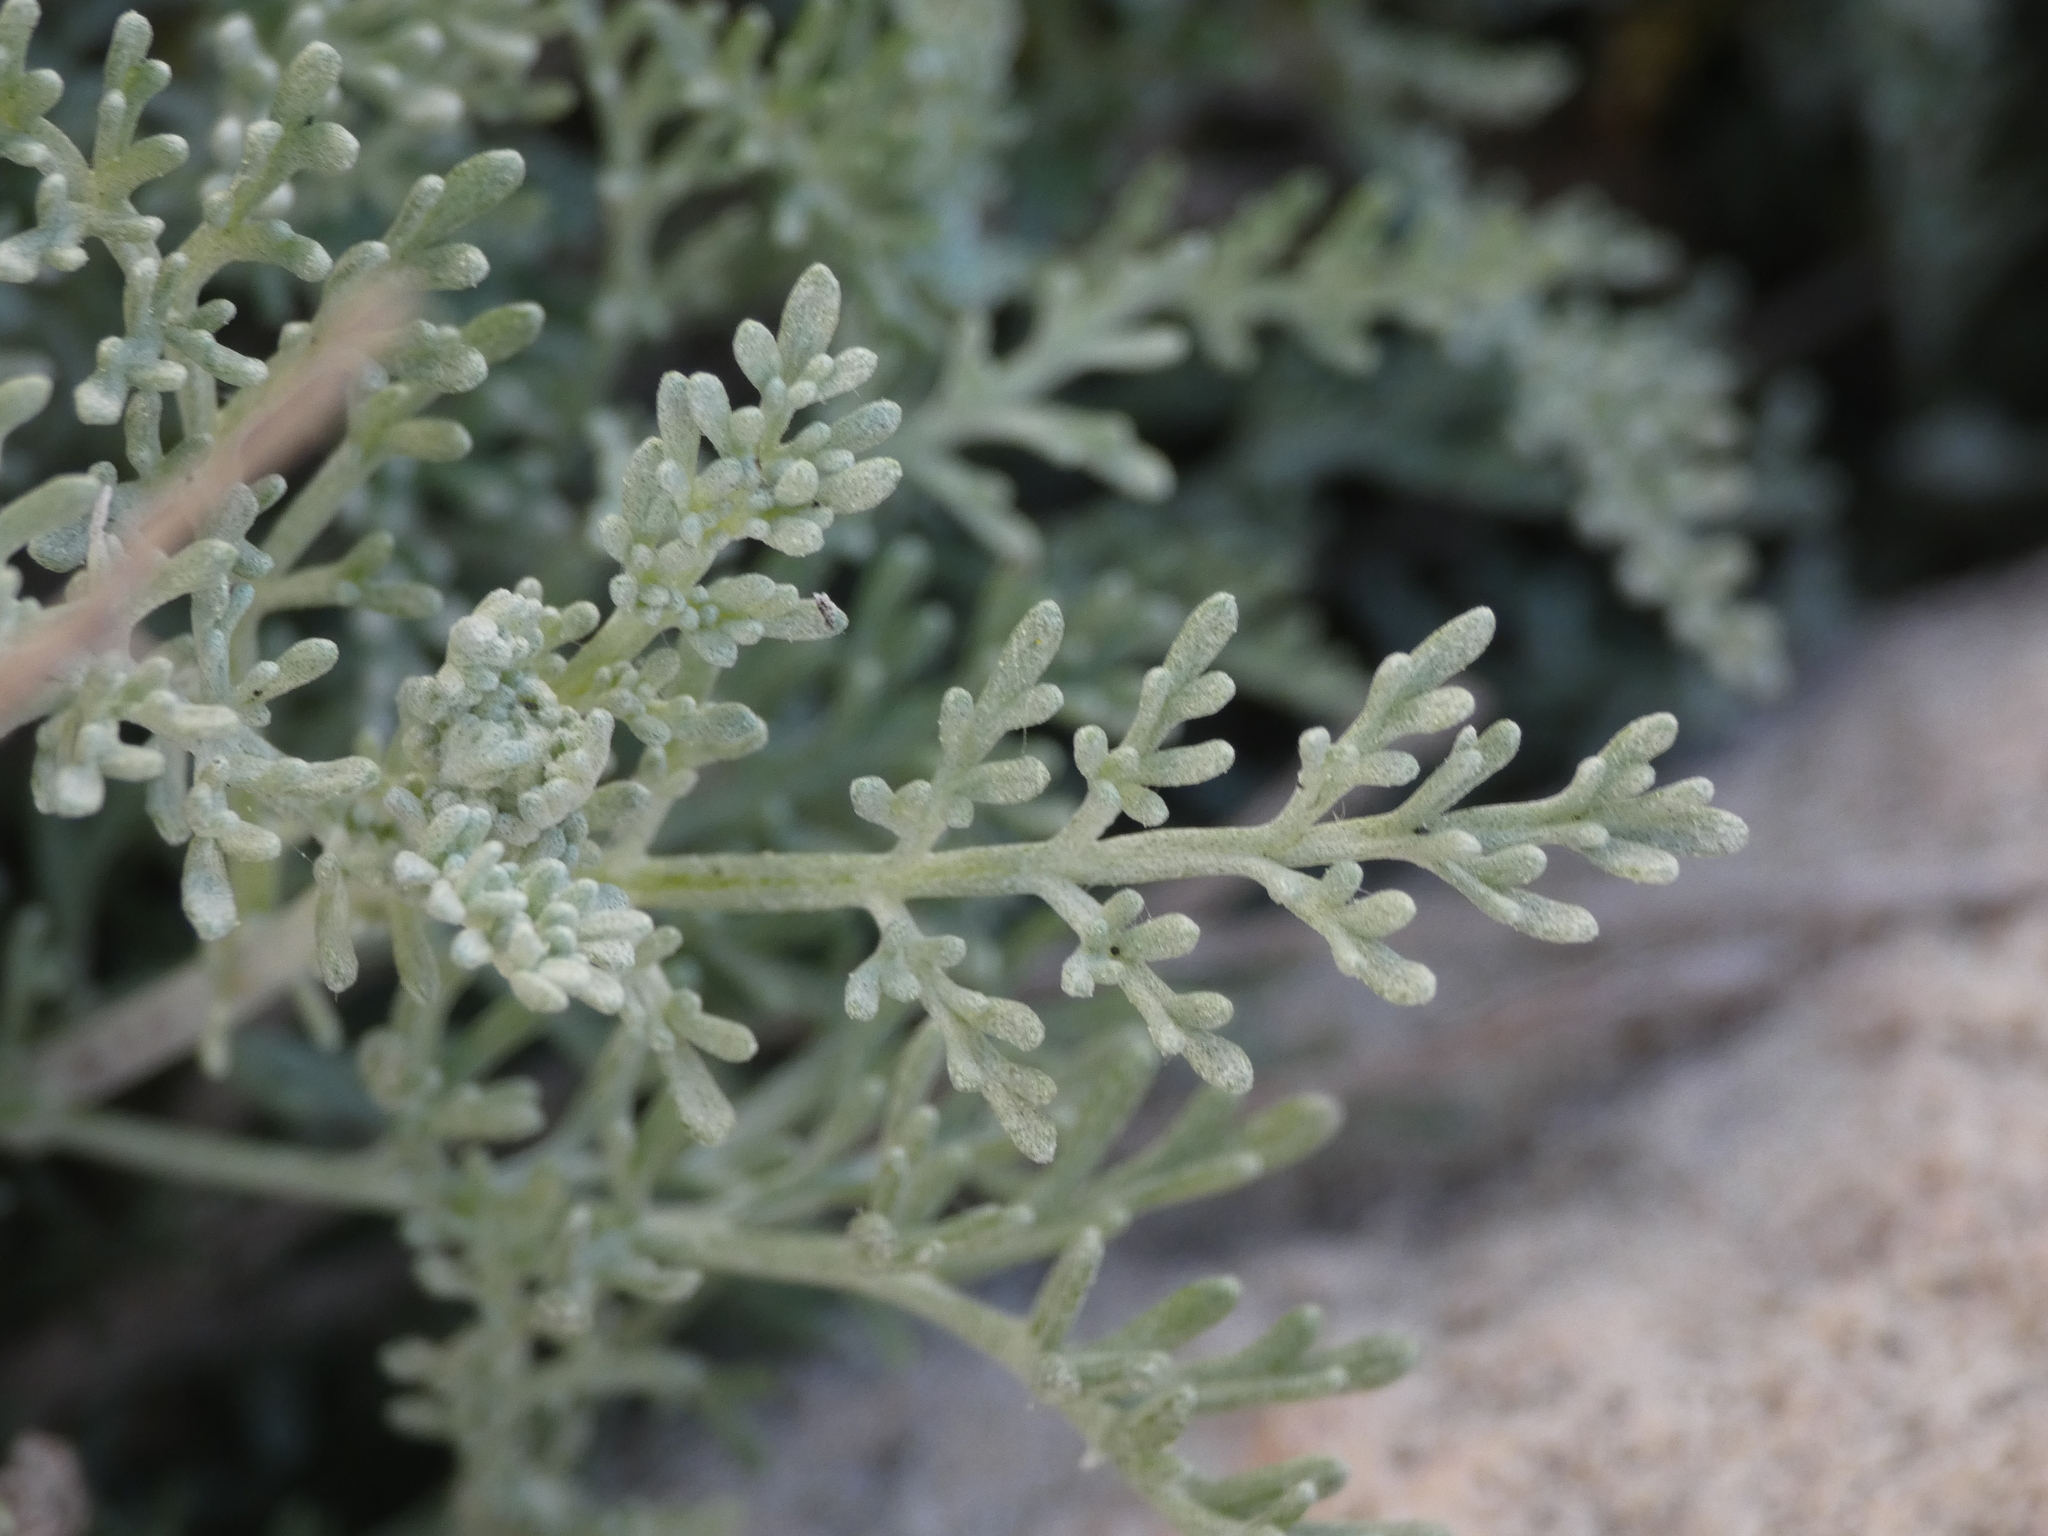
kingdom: Plantae
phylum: Tracheophyta
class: Magnoliopsida
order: Asterales
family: Asteraceae
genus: Artemisia
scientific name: Artemisia caerulescens
